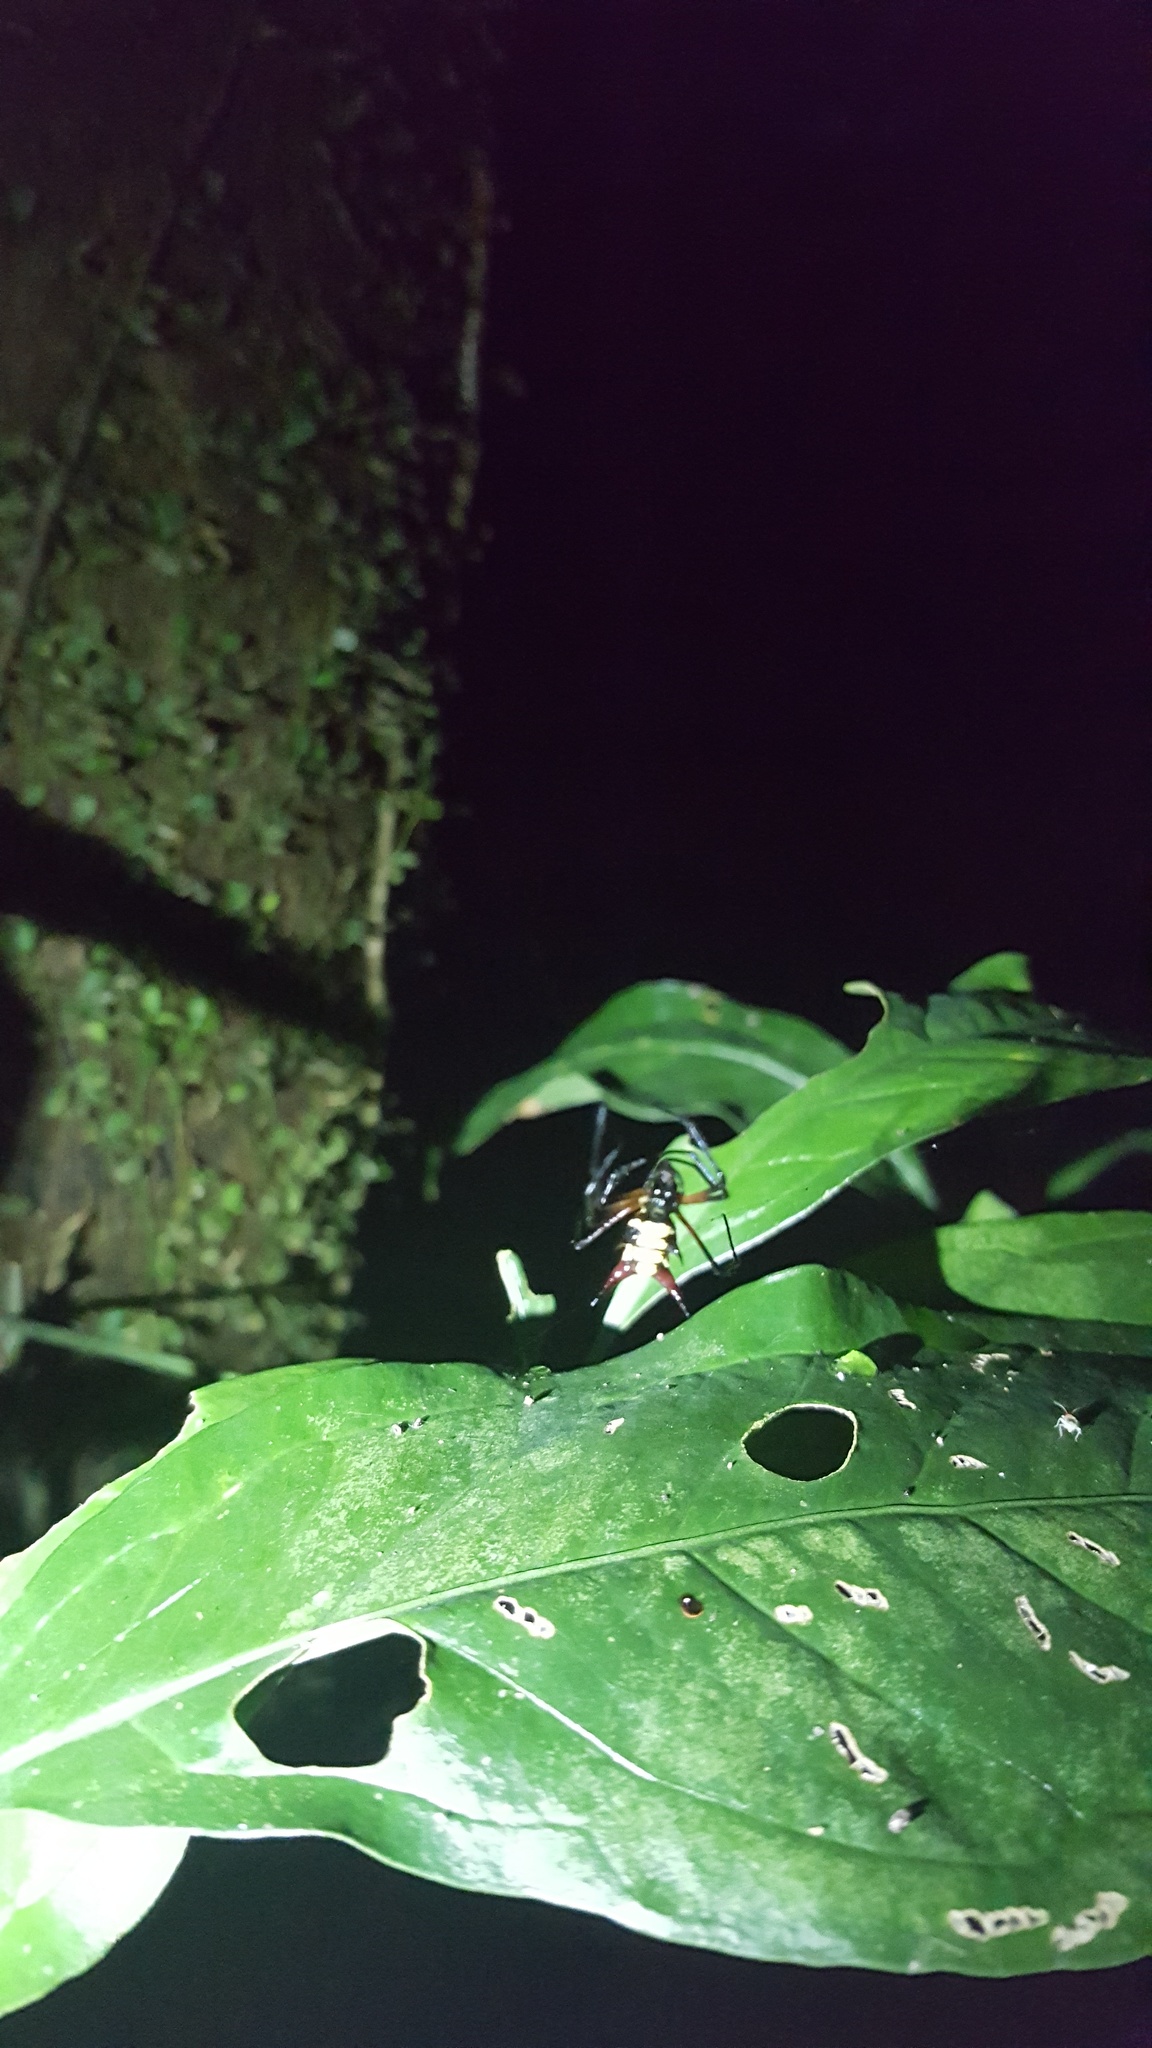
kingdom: Animalia
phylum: Arthropoda
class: Arachnida
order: Araneae
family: Araneidae
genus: Micrathena
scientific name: Micrathena kirbyi
